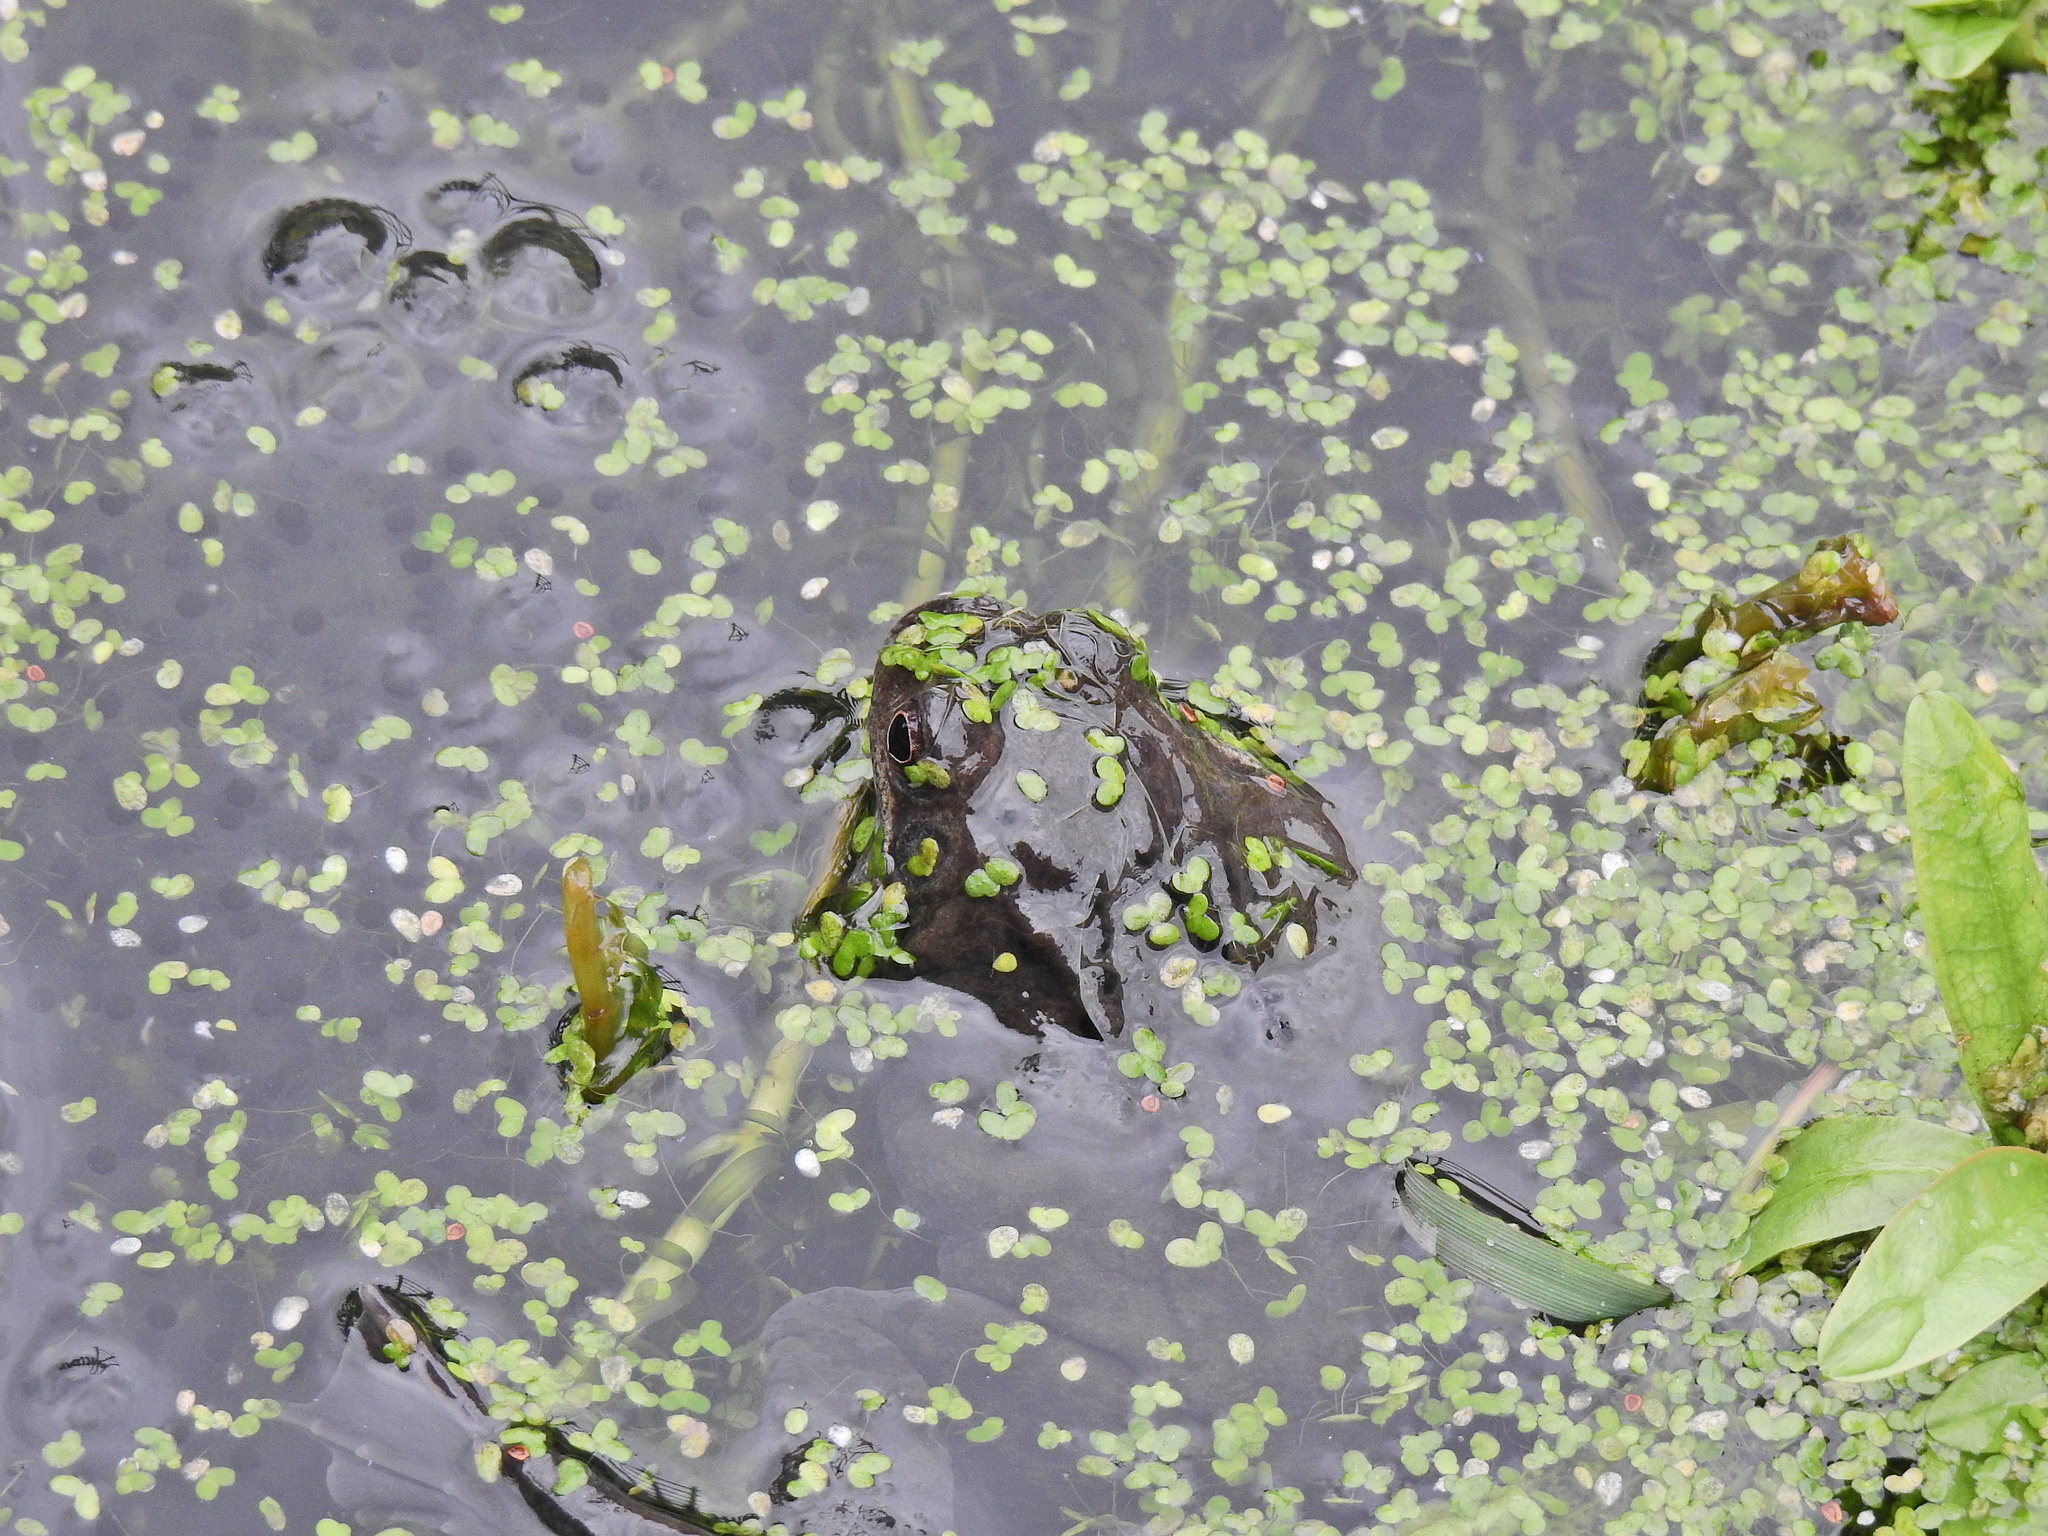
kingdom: Animalia
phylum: Chordata
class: Amphibia
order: Anura
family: Ranidae
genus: Rana
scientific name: Rana temporaria
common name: Common frog
